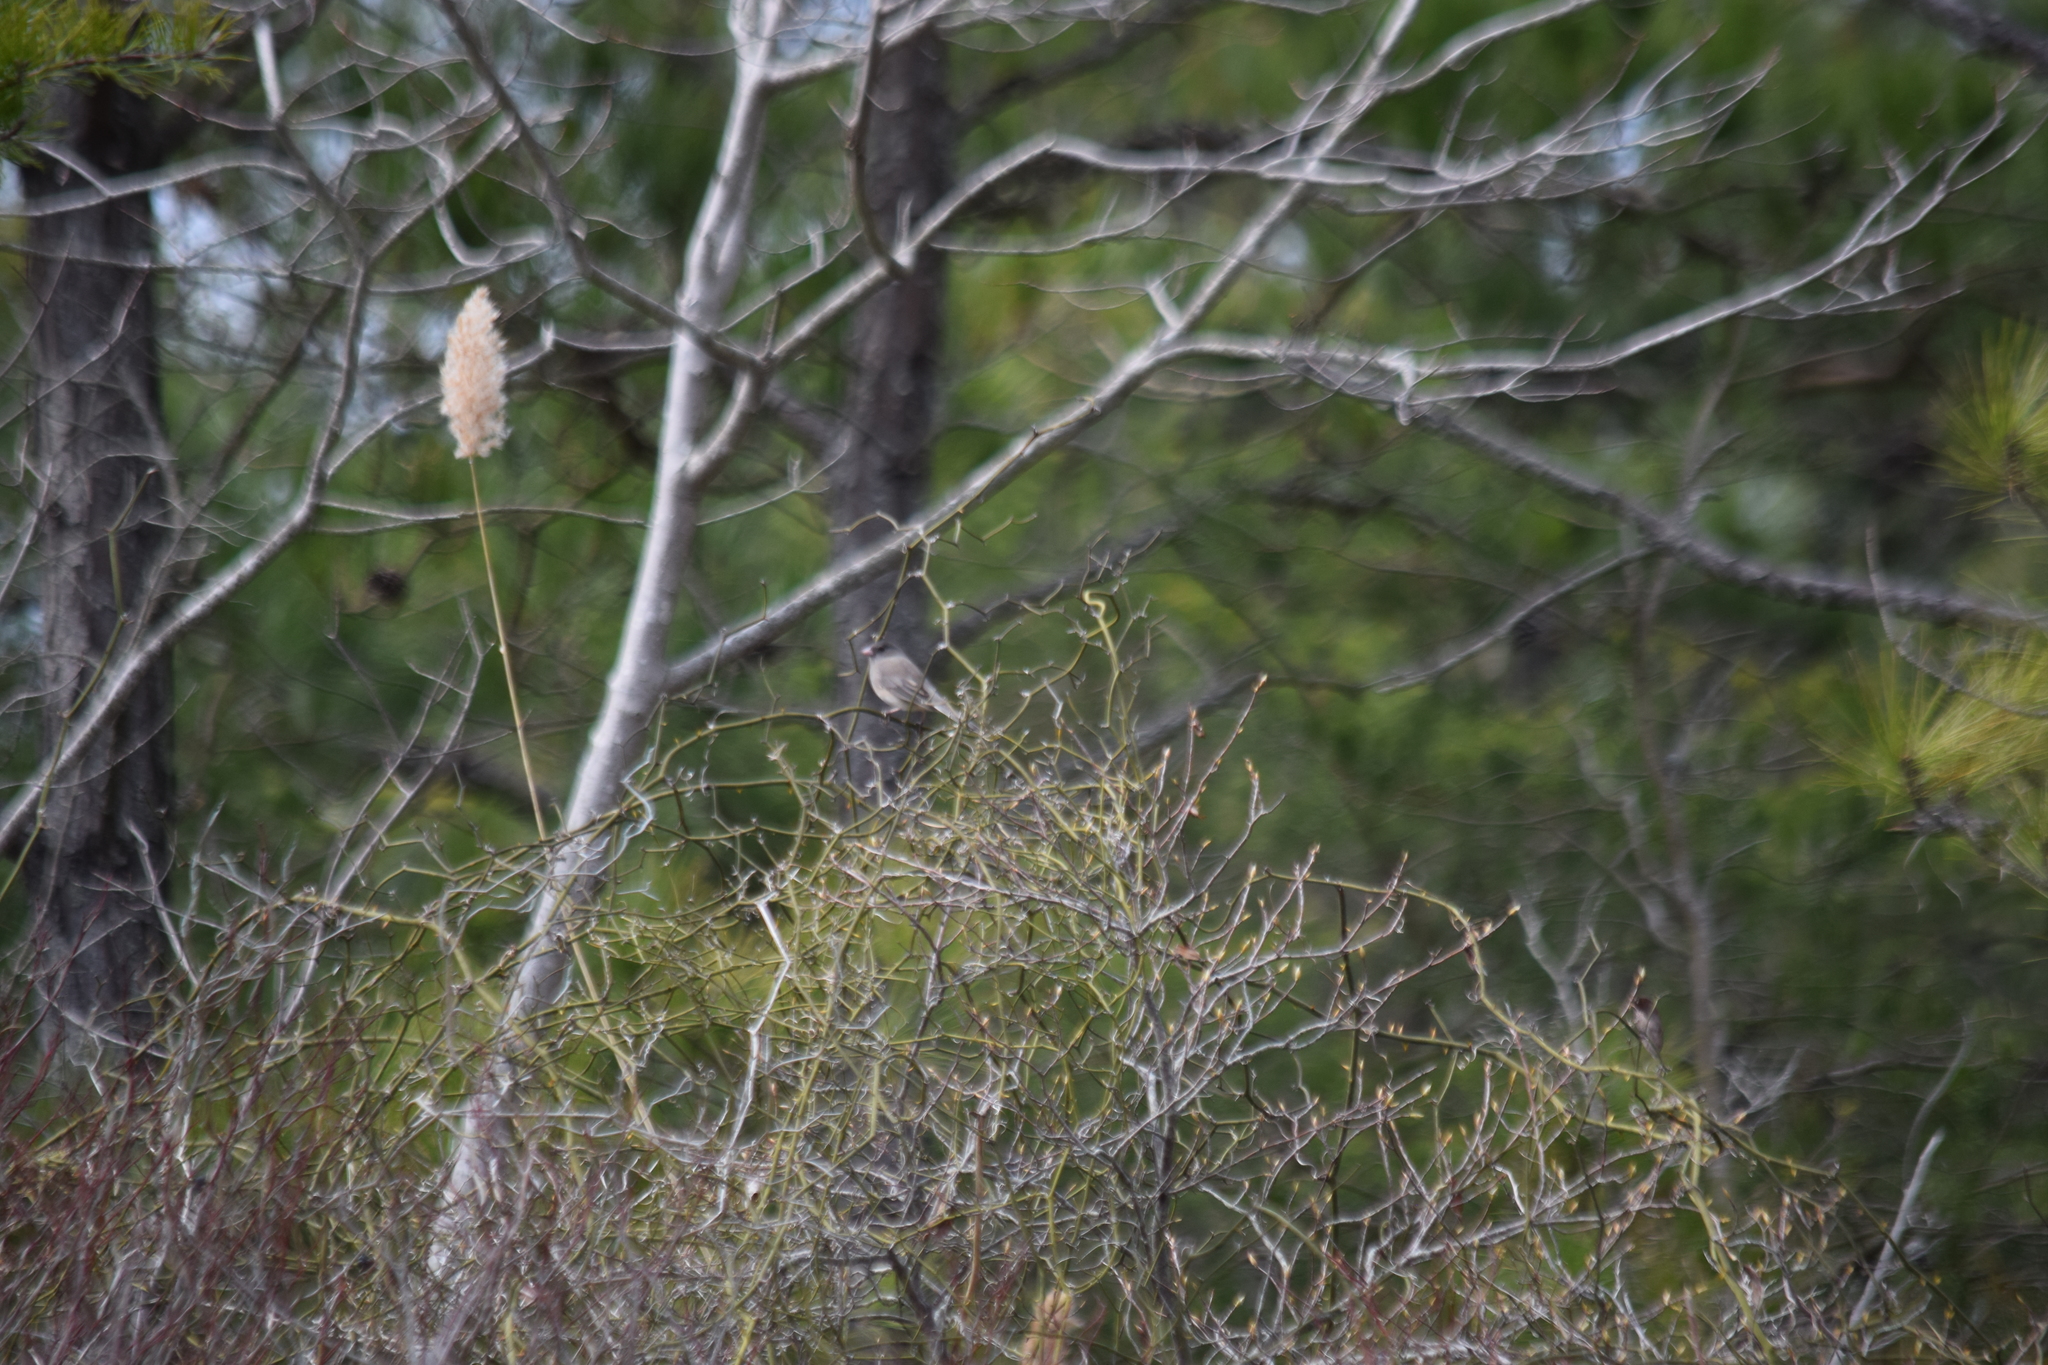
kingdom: Animalia
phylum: Chordata
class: Aves
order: Passeriformes
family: Passerellidae
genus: Junco
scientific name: Junco hyemalis
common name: Dark-eyed junco
